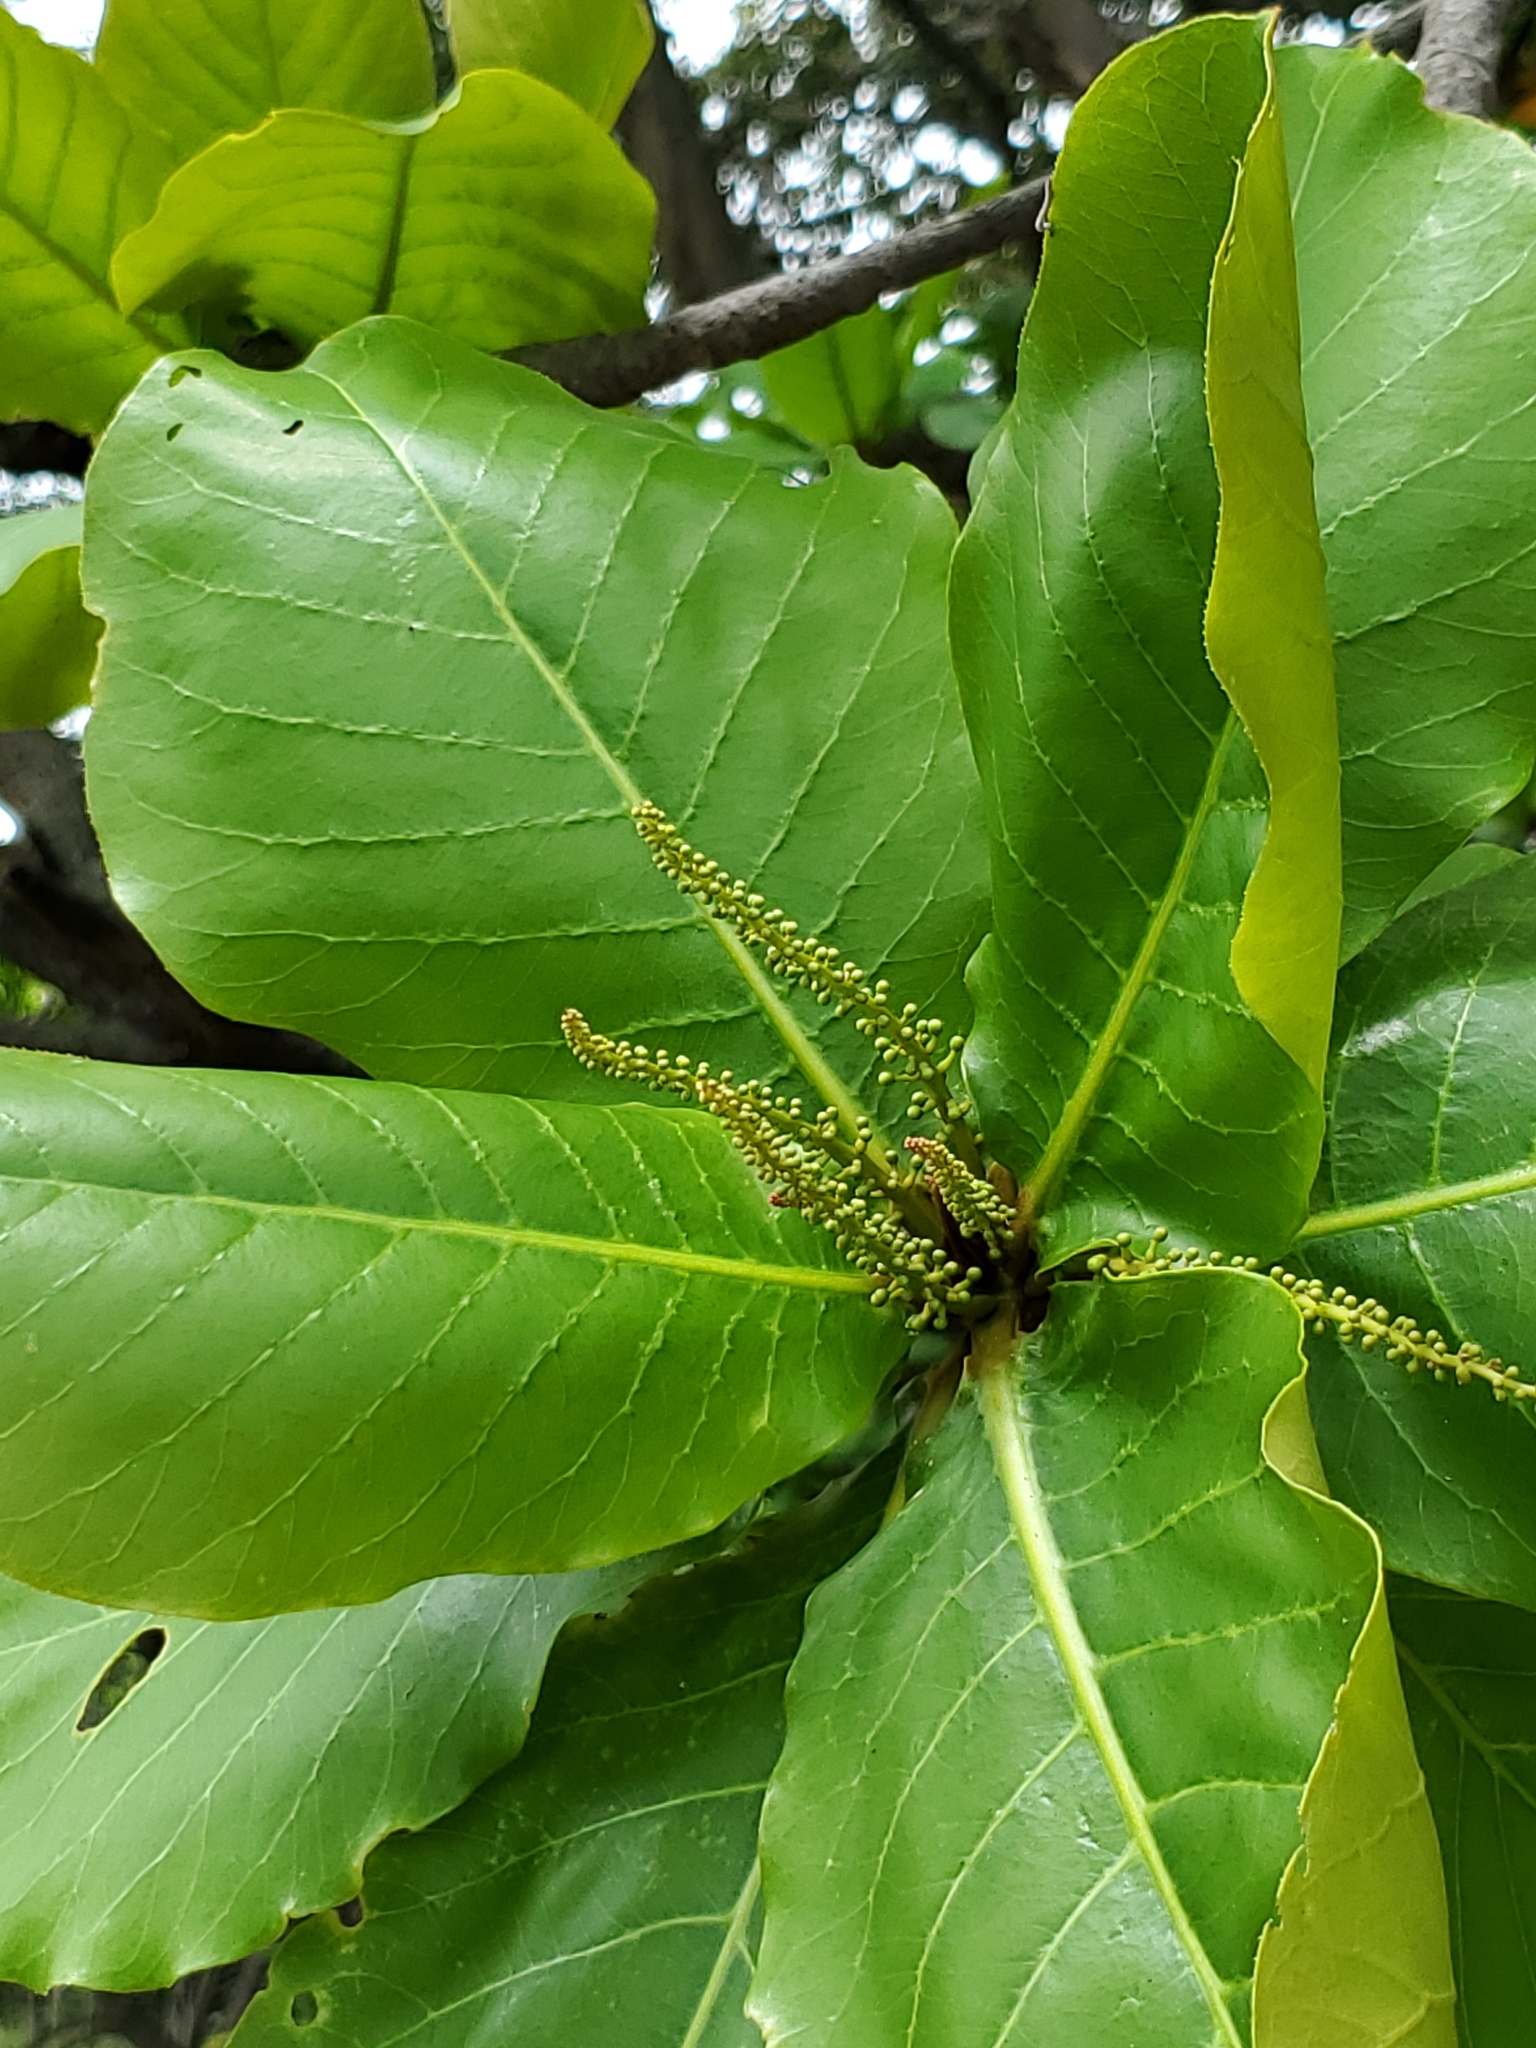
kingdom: Plantae
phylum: Tracheophyta
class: Magnoliopsida
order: Myrtales
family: Combretaceae
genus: Terminalia
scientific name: Terminalia catappa
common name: Tropical almond
